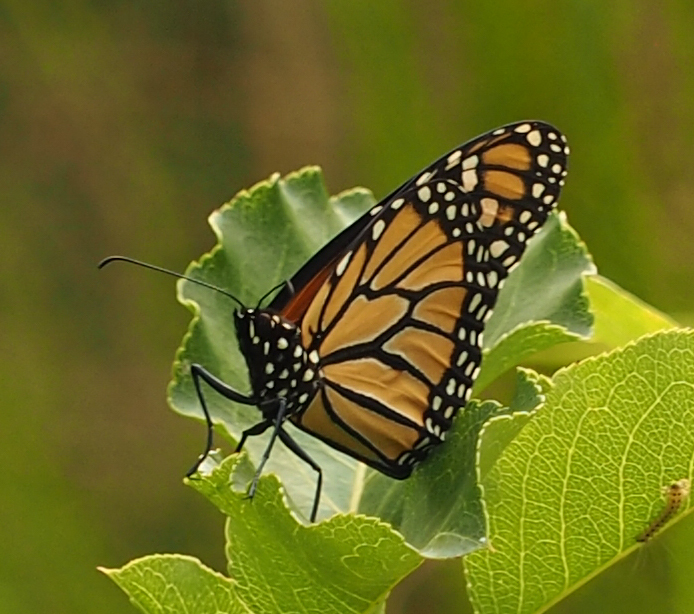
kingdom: Animalia
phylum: Arthropoda
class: Insecta
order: Lepidoptera
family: Nymphalidae
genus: Danaus
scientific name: Danaus plexippus
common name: Monarch
